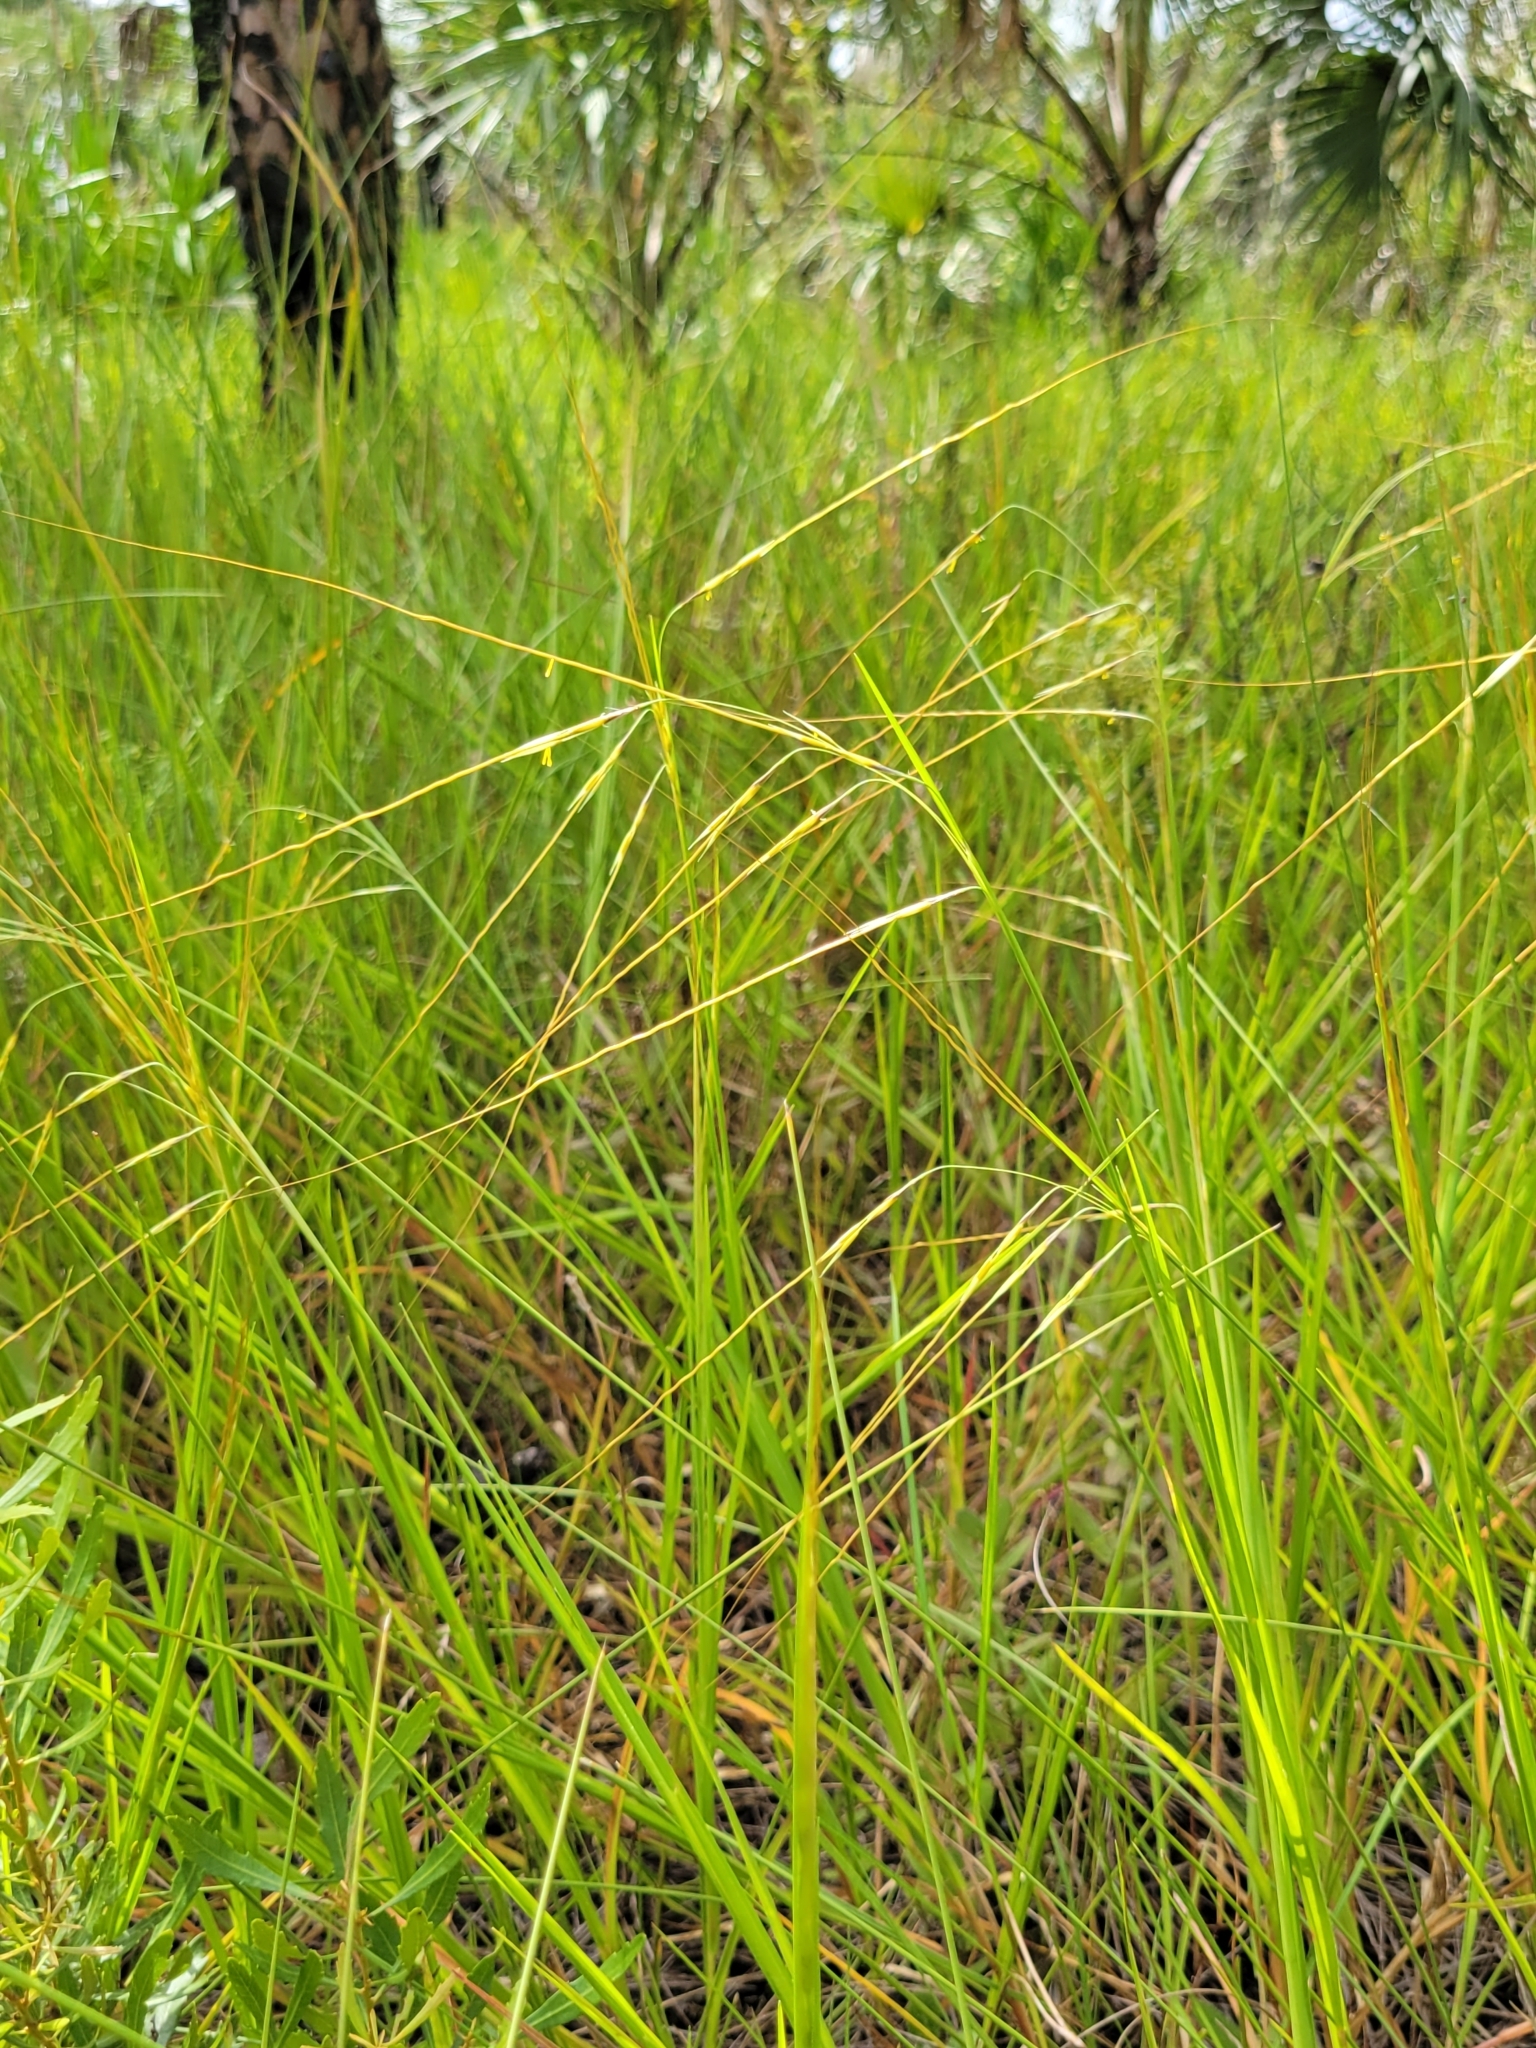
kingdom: Plantae
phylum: Tracheophyta
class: Liliopsida
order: Poales
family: Poaceae
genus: Chrysopogon
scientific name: Chrysopogon pauciflorus
